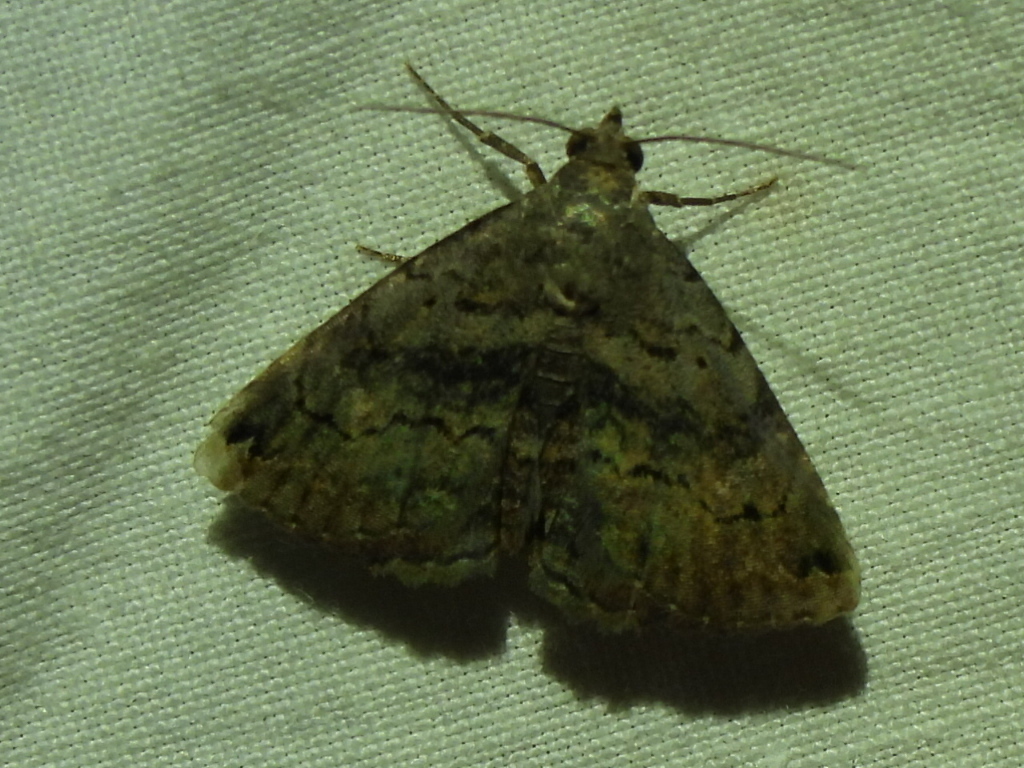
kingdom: Animalia
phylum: Arthropoda
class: Insecta
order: Lepidoptera
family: Erebidae
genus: Toxonprucha
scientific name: Toxonprucha crudelis
